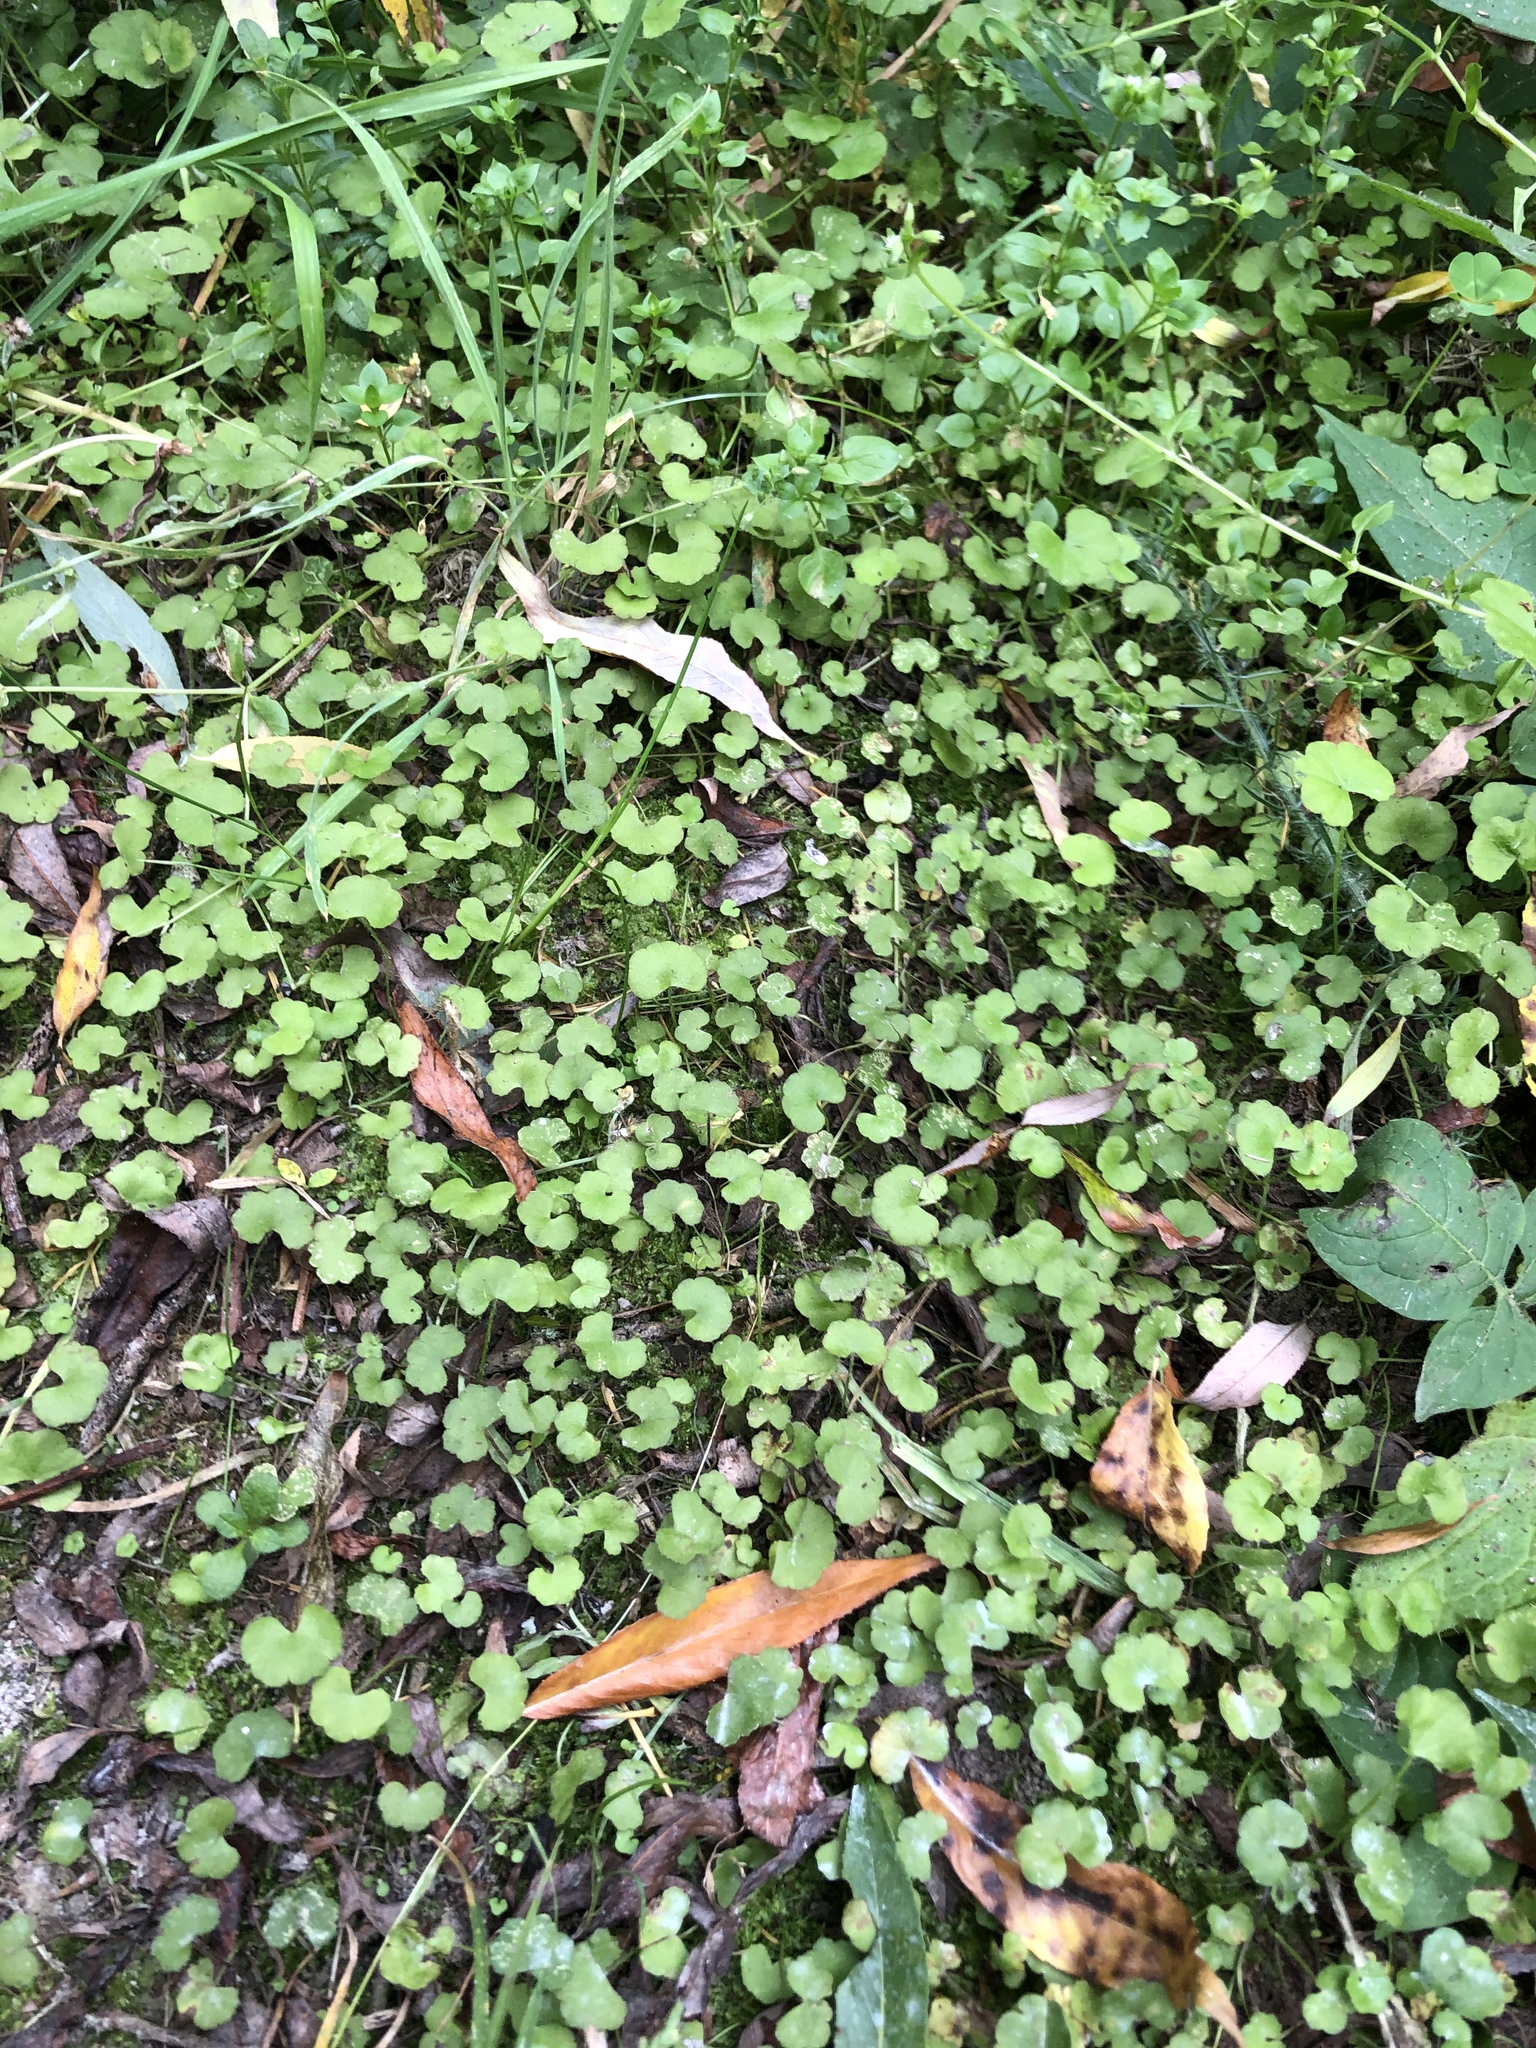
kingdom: Plantae
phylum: Tracheophyta
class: Magnoliopsida
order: Apiales
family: Araliaceae
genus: Hydrocotyle
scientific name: Hydrocotyle novae-zeelandiae
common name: New zealand pennywort
